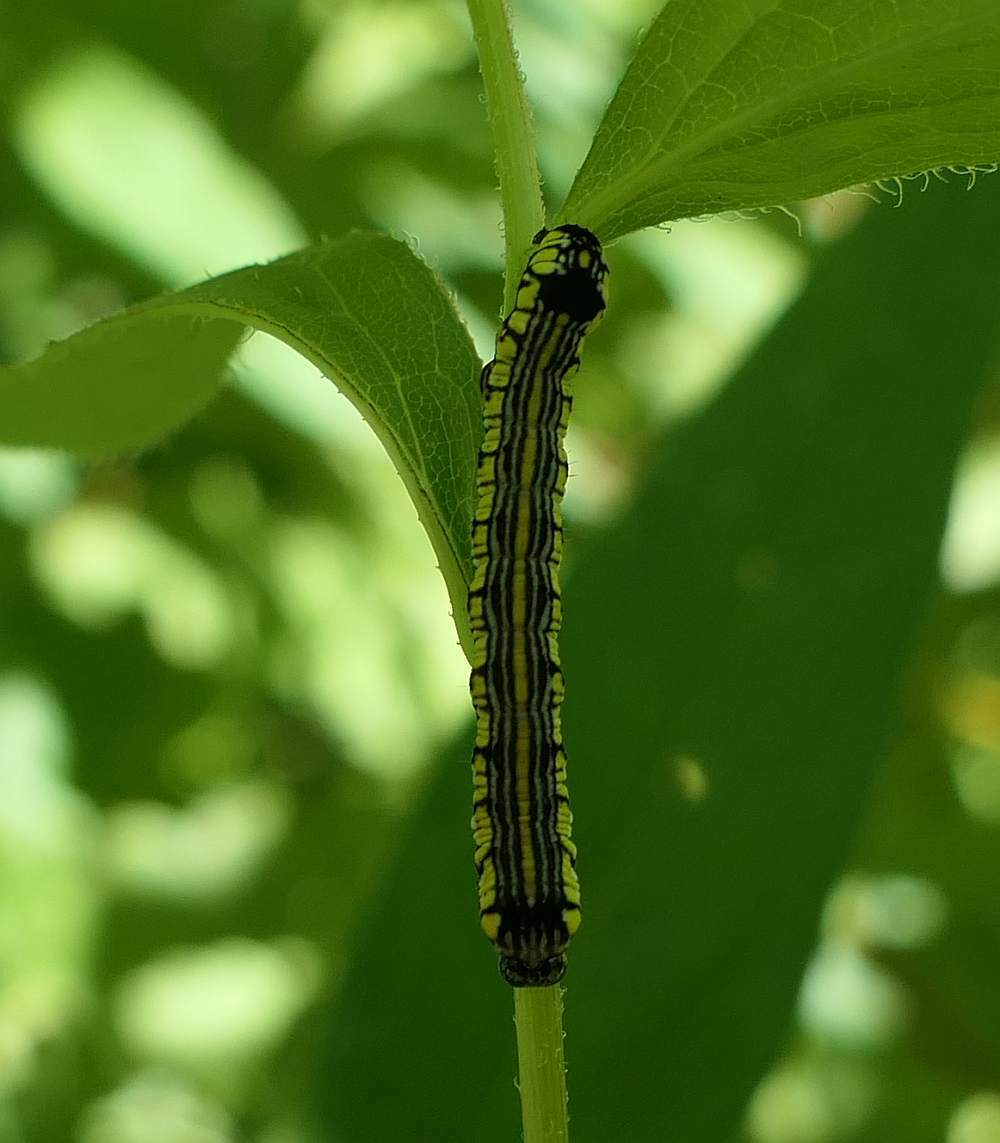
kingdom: Animalia
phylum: Arthropoda
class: Insecta
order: Lepidoptera
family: Noctuidae
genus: Cucullia
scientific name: Cucullia convexipennis
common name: Brown-hooded owlet
